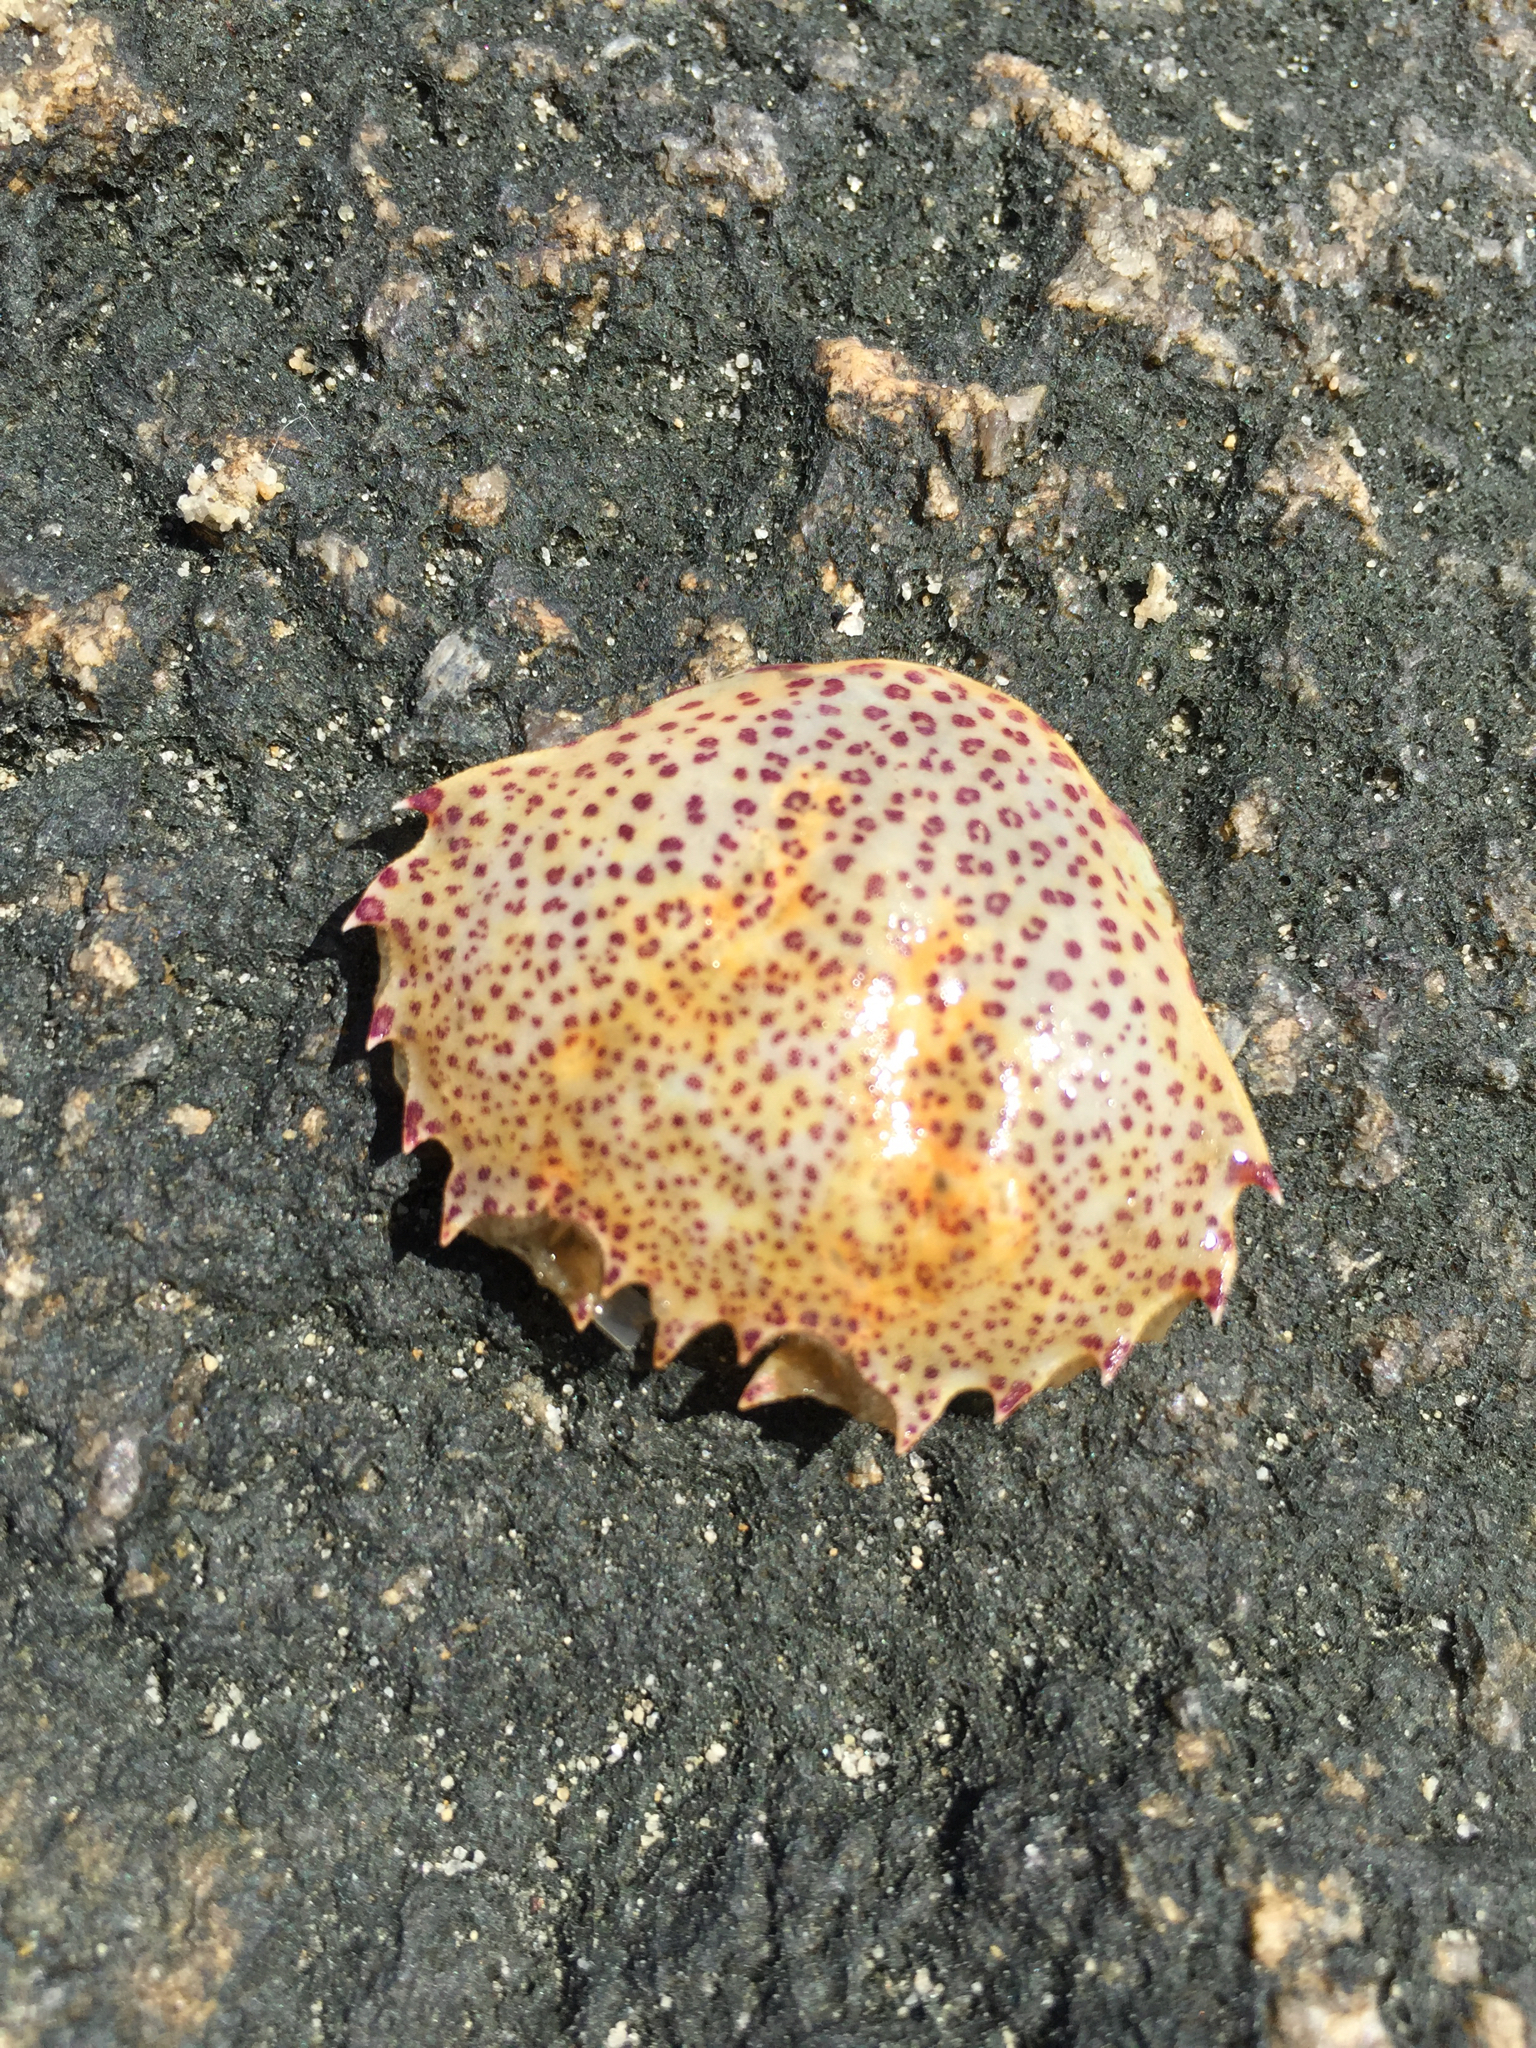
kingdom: Animalia
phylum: Arthropoda
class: Malacostraca
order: Decapoda
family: Ovalipidae
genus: Ovalipes
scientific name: Ovalipes ocellatus
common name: Lady crab
